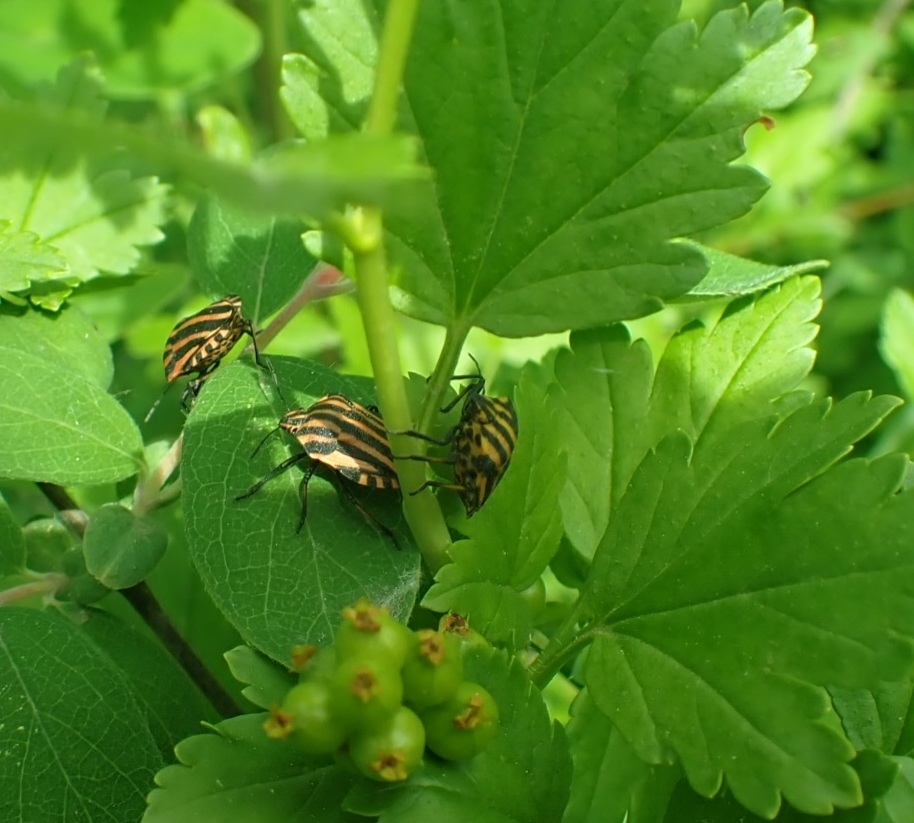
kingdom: Animalia
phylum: Arthropoda
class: Insecta
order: Hemiptera
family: Pentatomidae
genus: Graphosoma
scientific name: Graphosoma italicum
